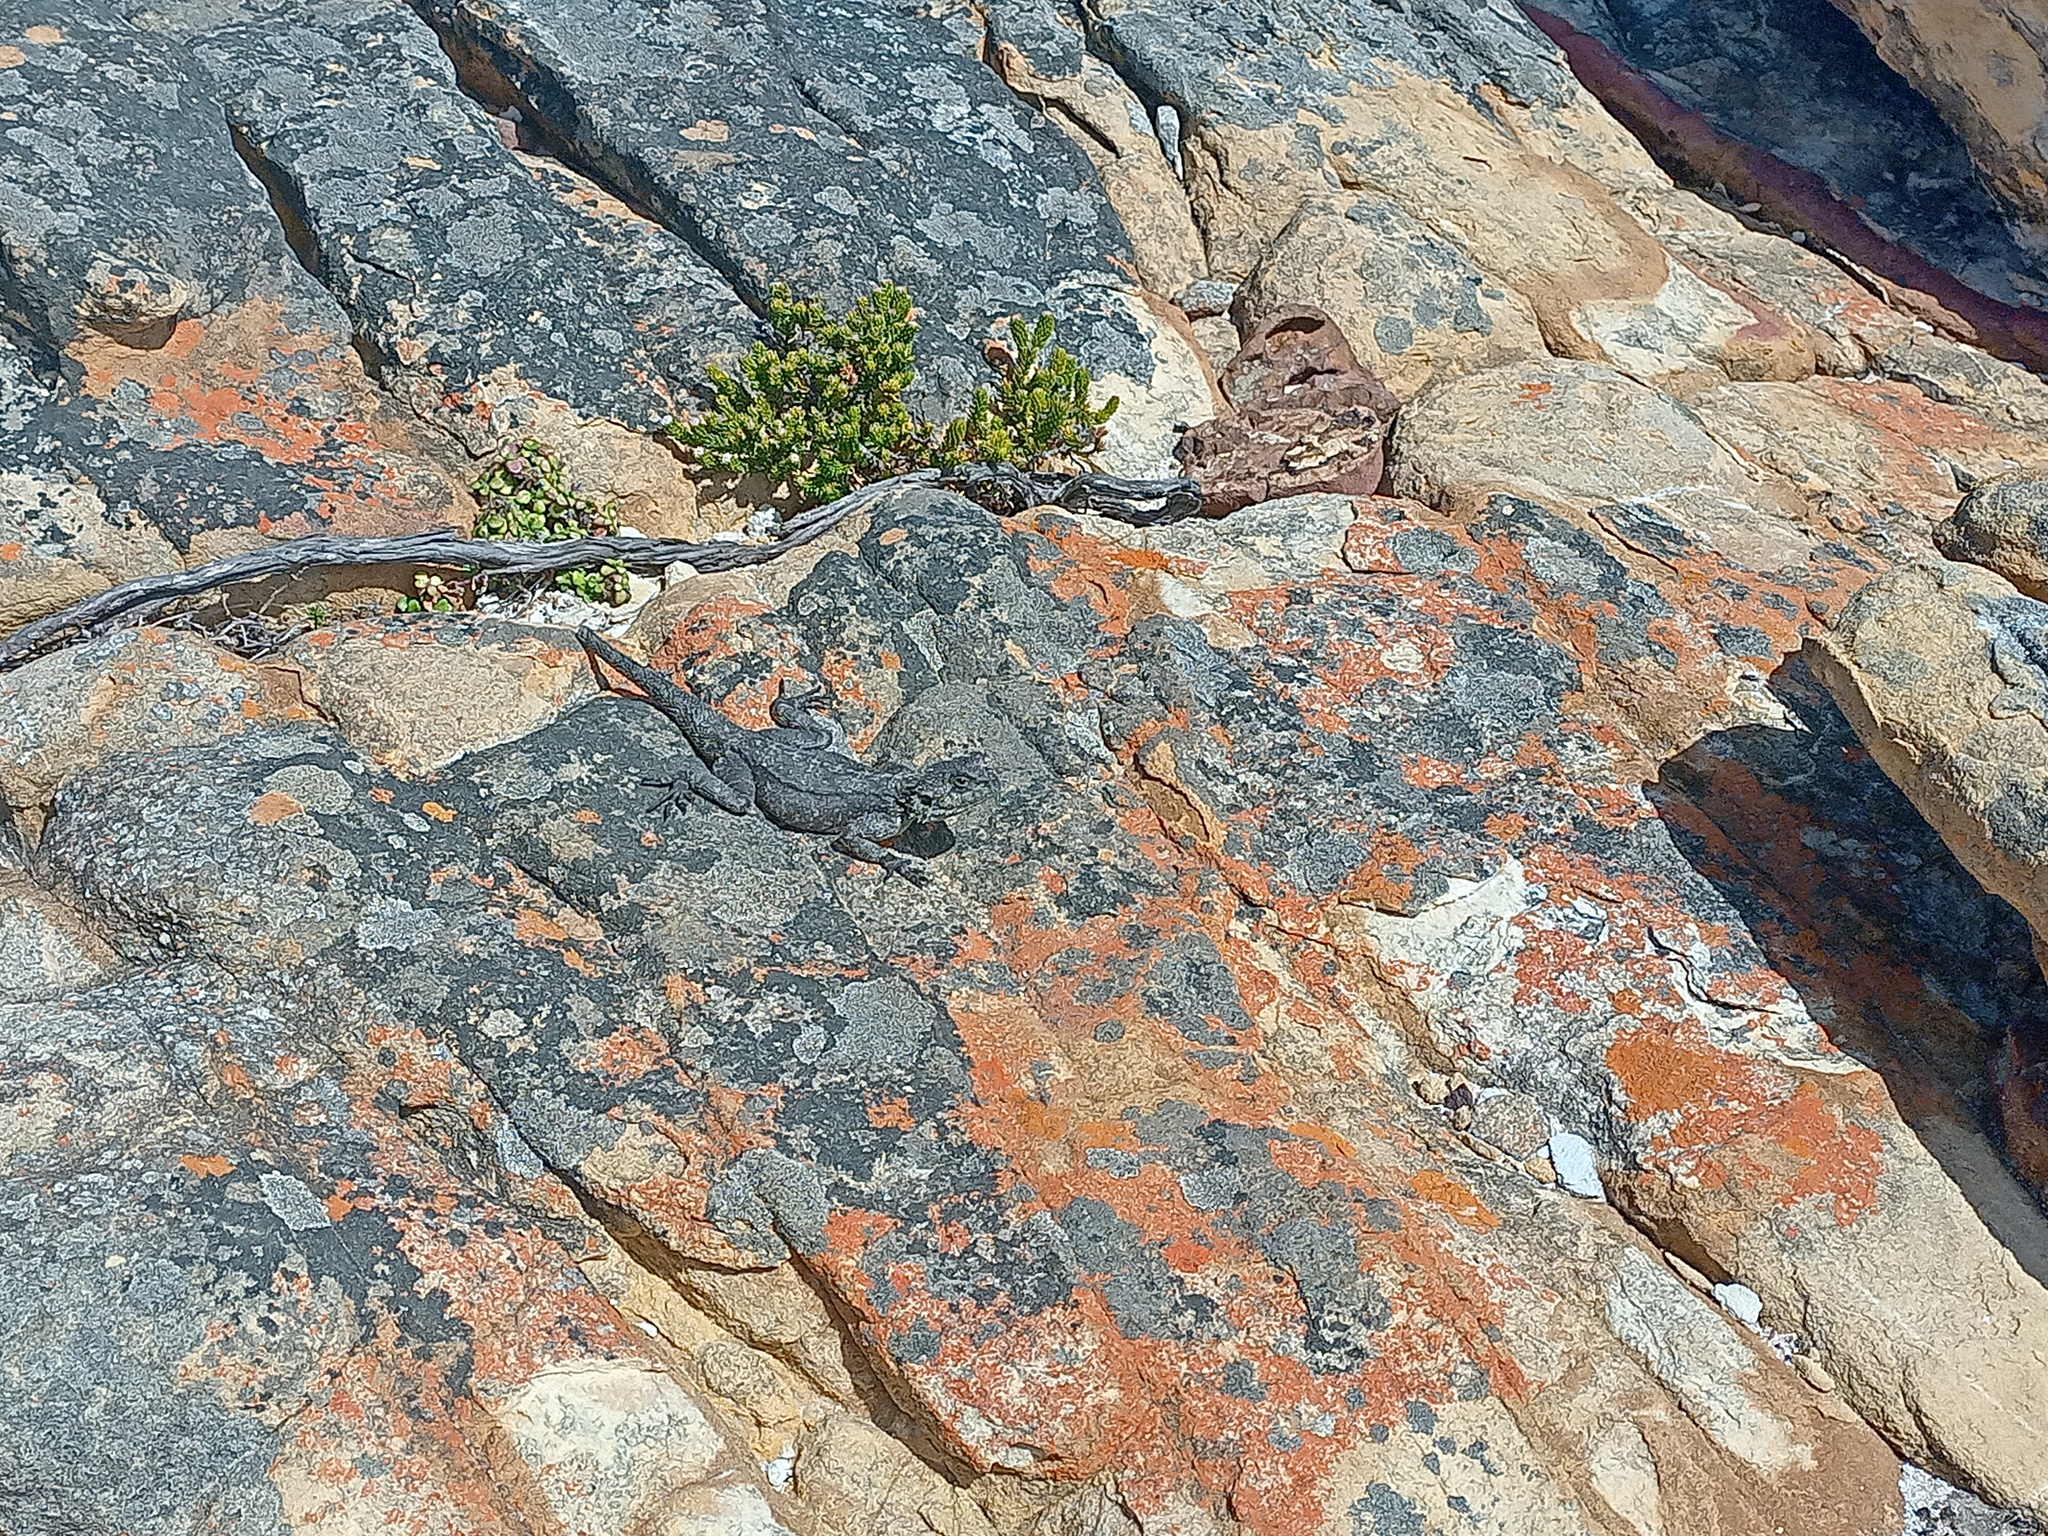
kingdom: Animalia
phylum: Chordata
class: Squamata
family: Agamidae
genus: Agama
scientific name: Agama atra
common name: Southern african rock agama
